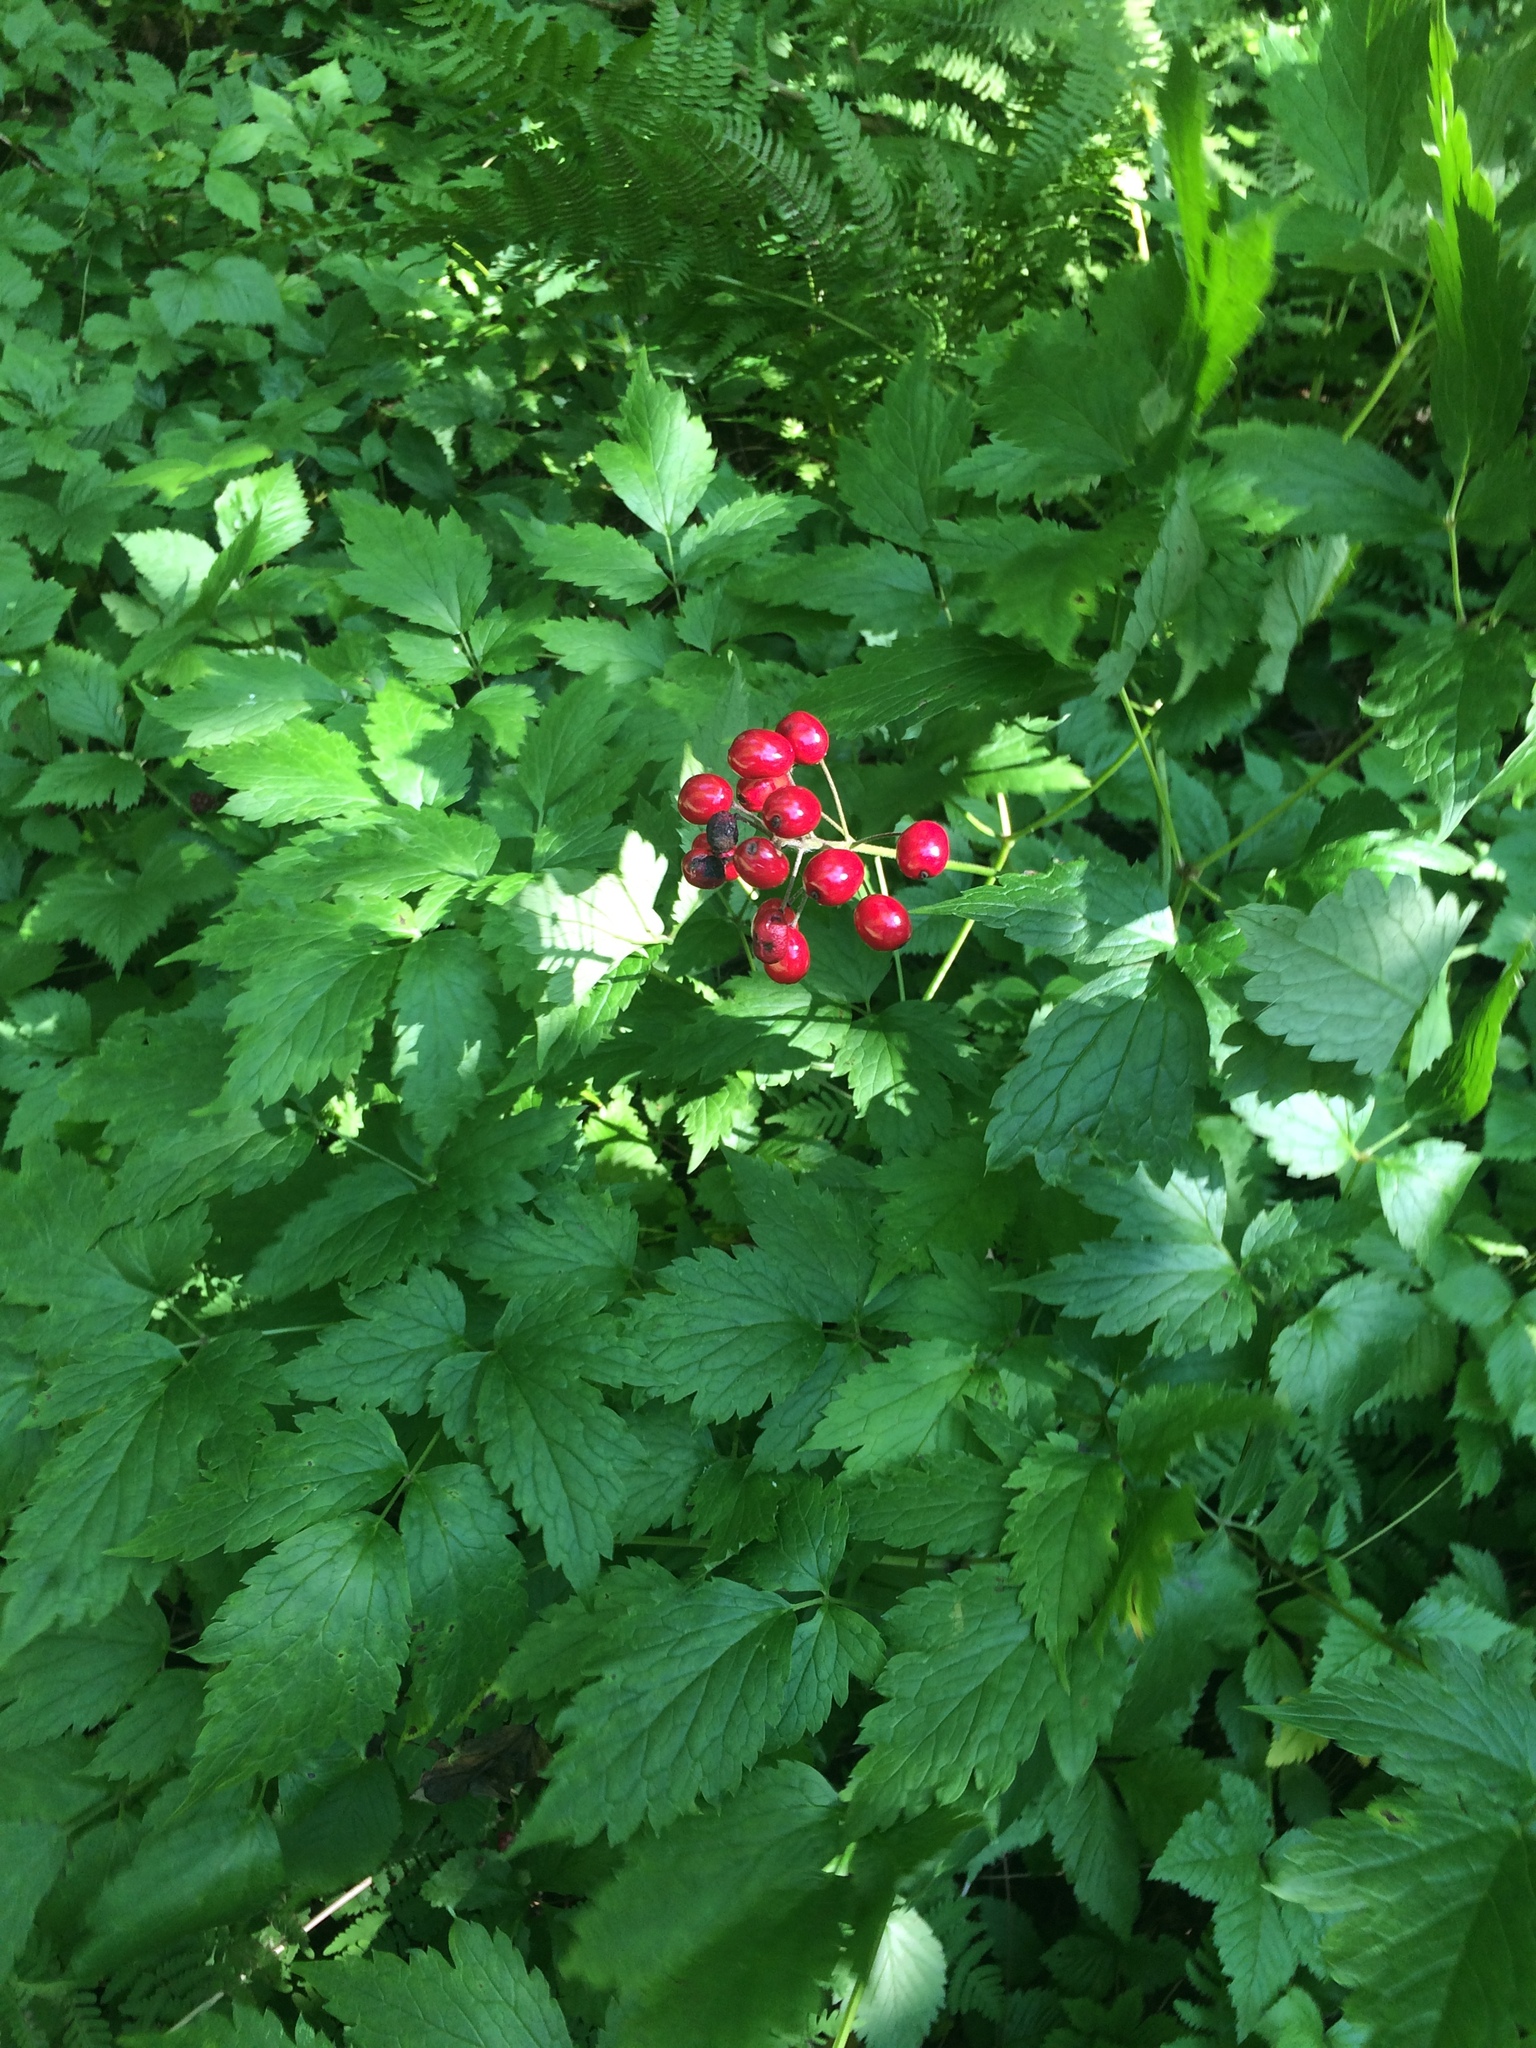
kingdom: Plantae
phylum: Tracheophyta
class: Magnoliopsida
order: Ranunculales
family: Ranunculaceae
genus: Actaea
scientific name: Actaea rubra
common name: Red baneberry
